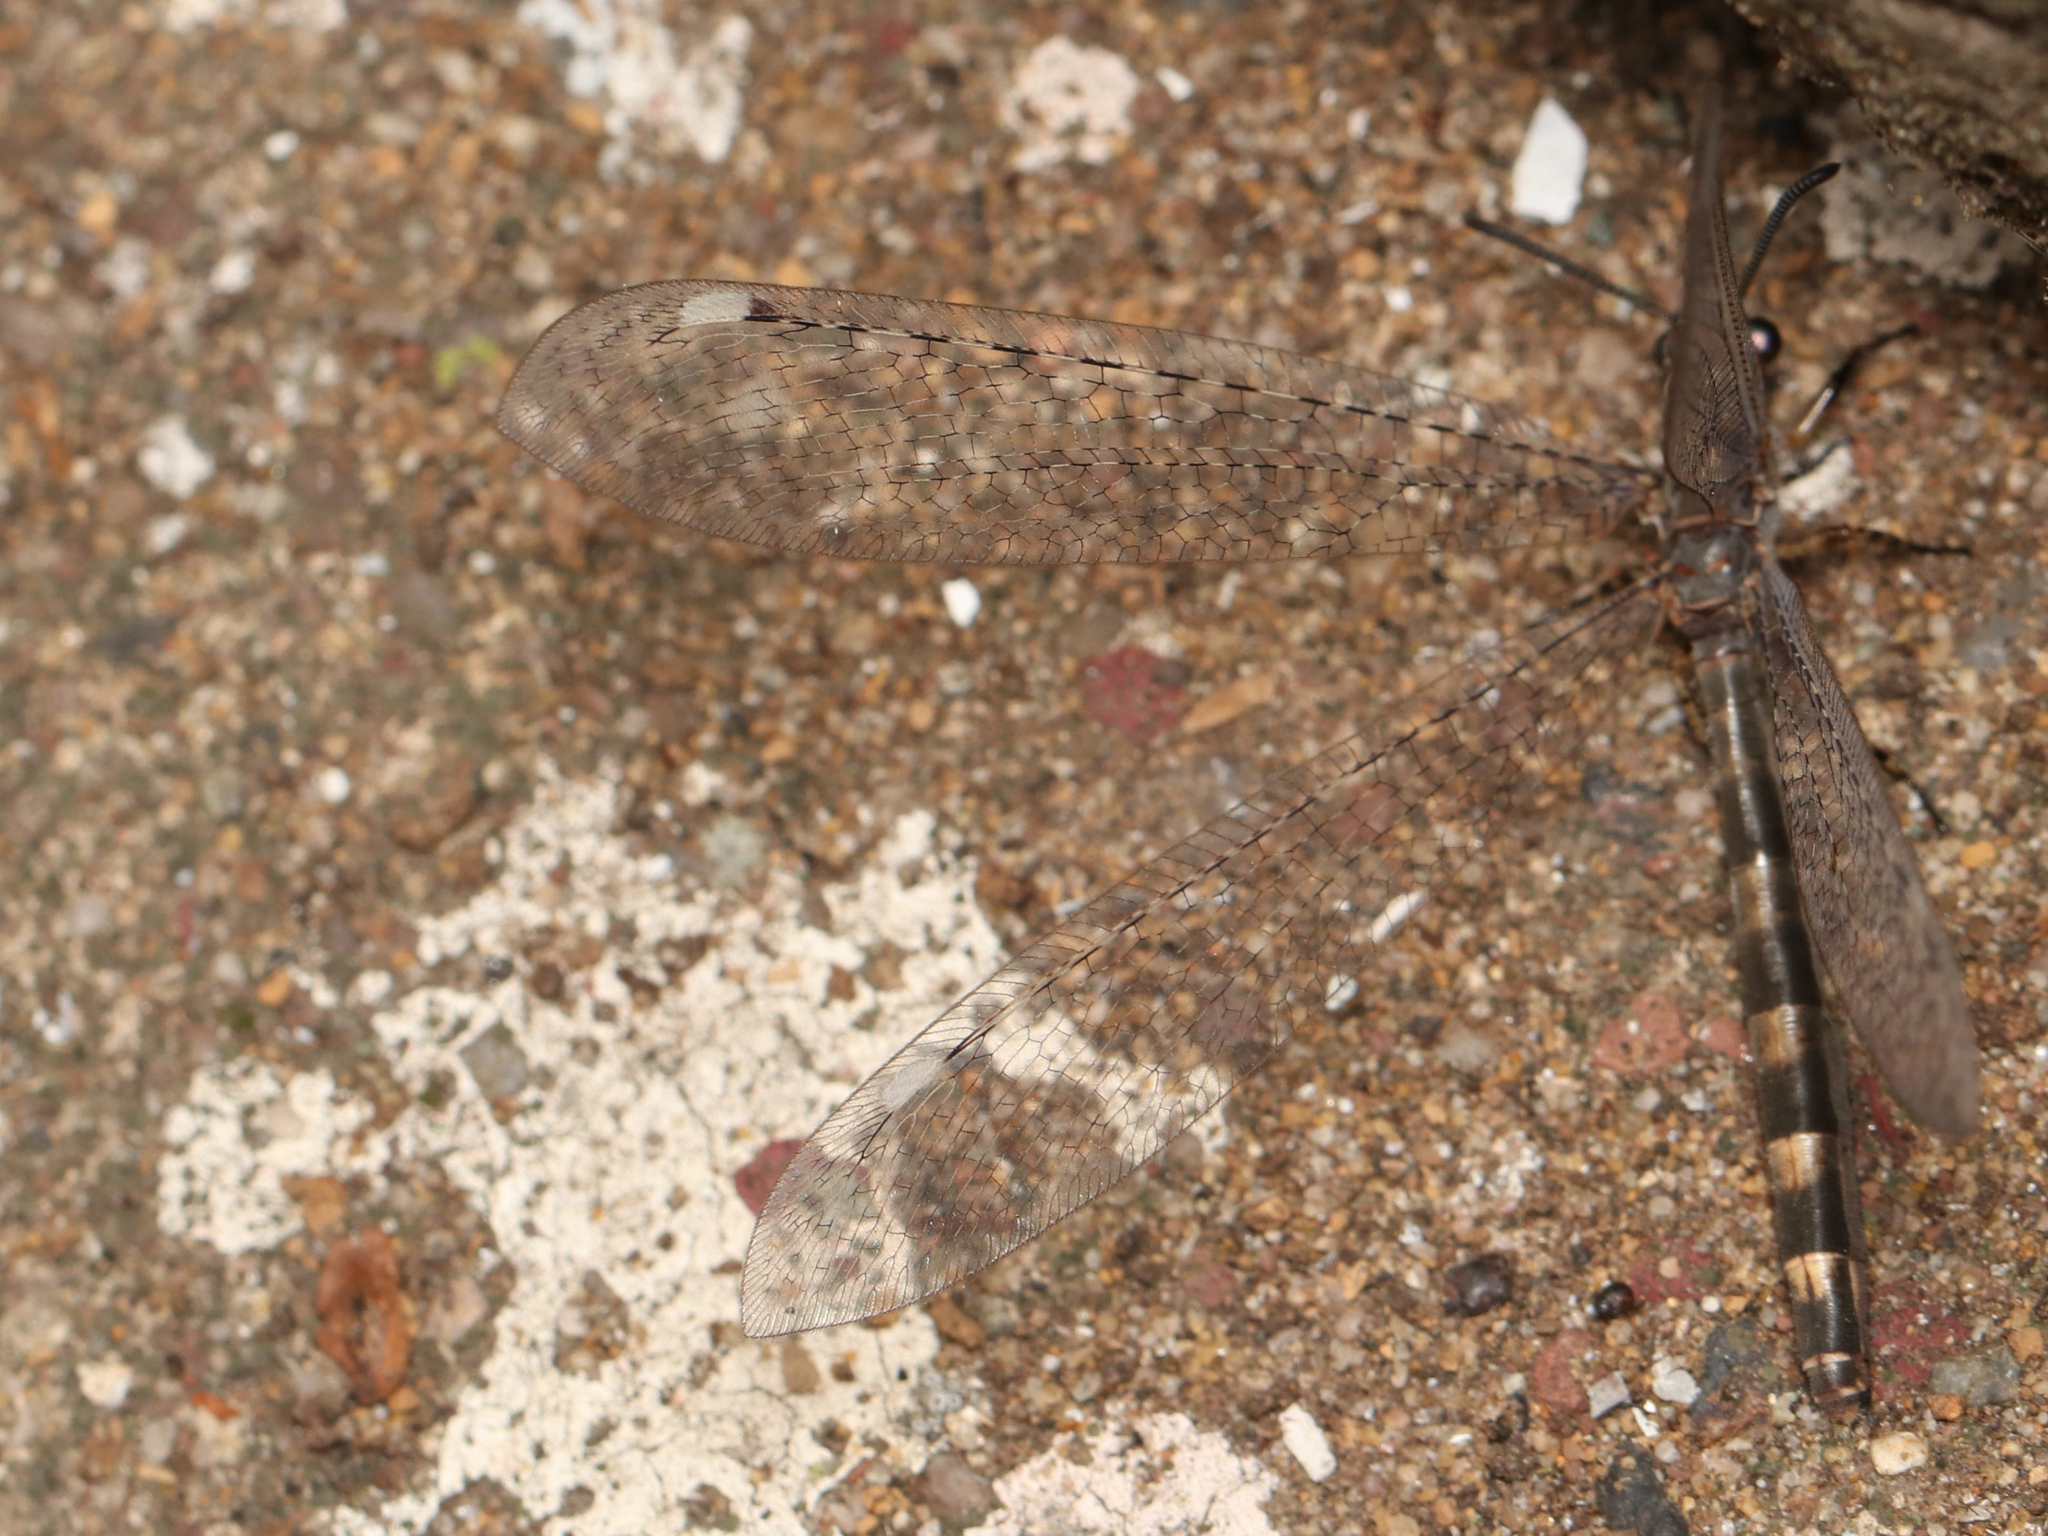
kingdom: Animalia
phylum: Arthropoda
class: Insecta
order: Neuroptera
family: Myrmeleontidae
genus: Myrmeleon
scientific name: Myrmeleon immaculatus
